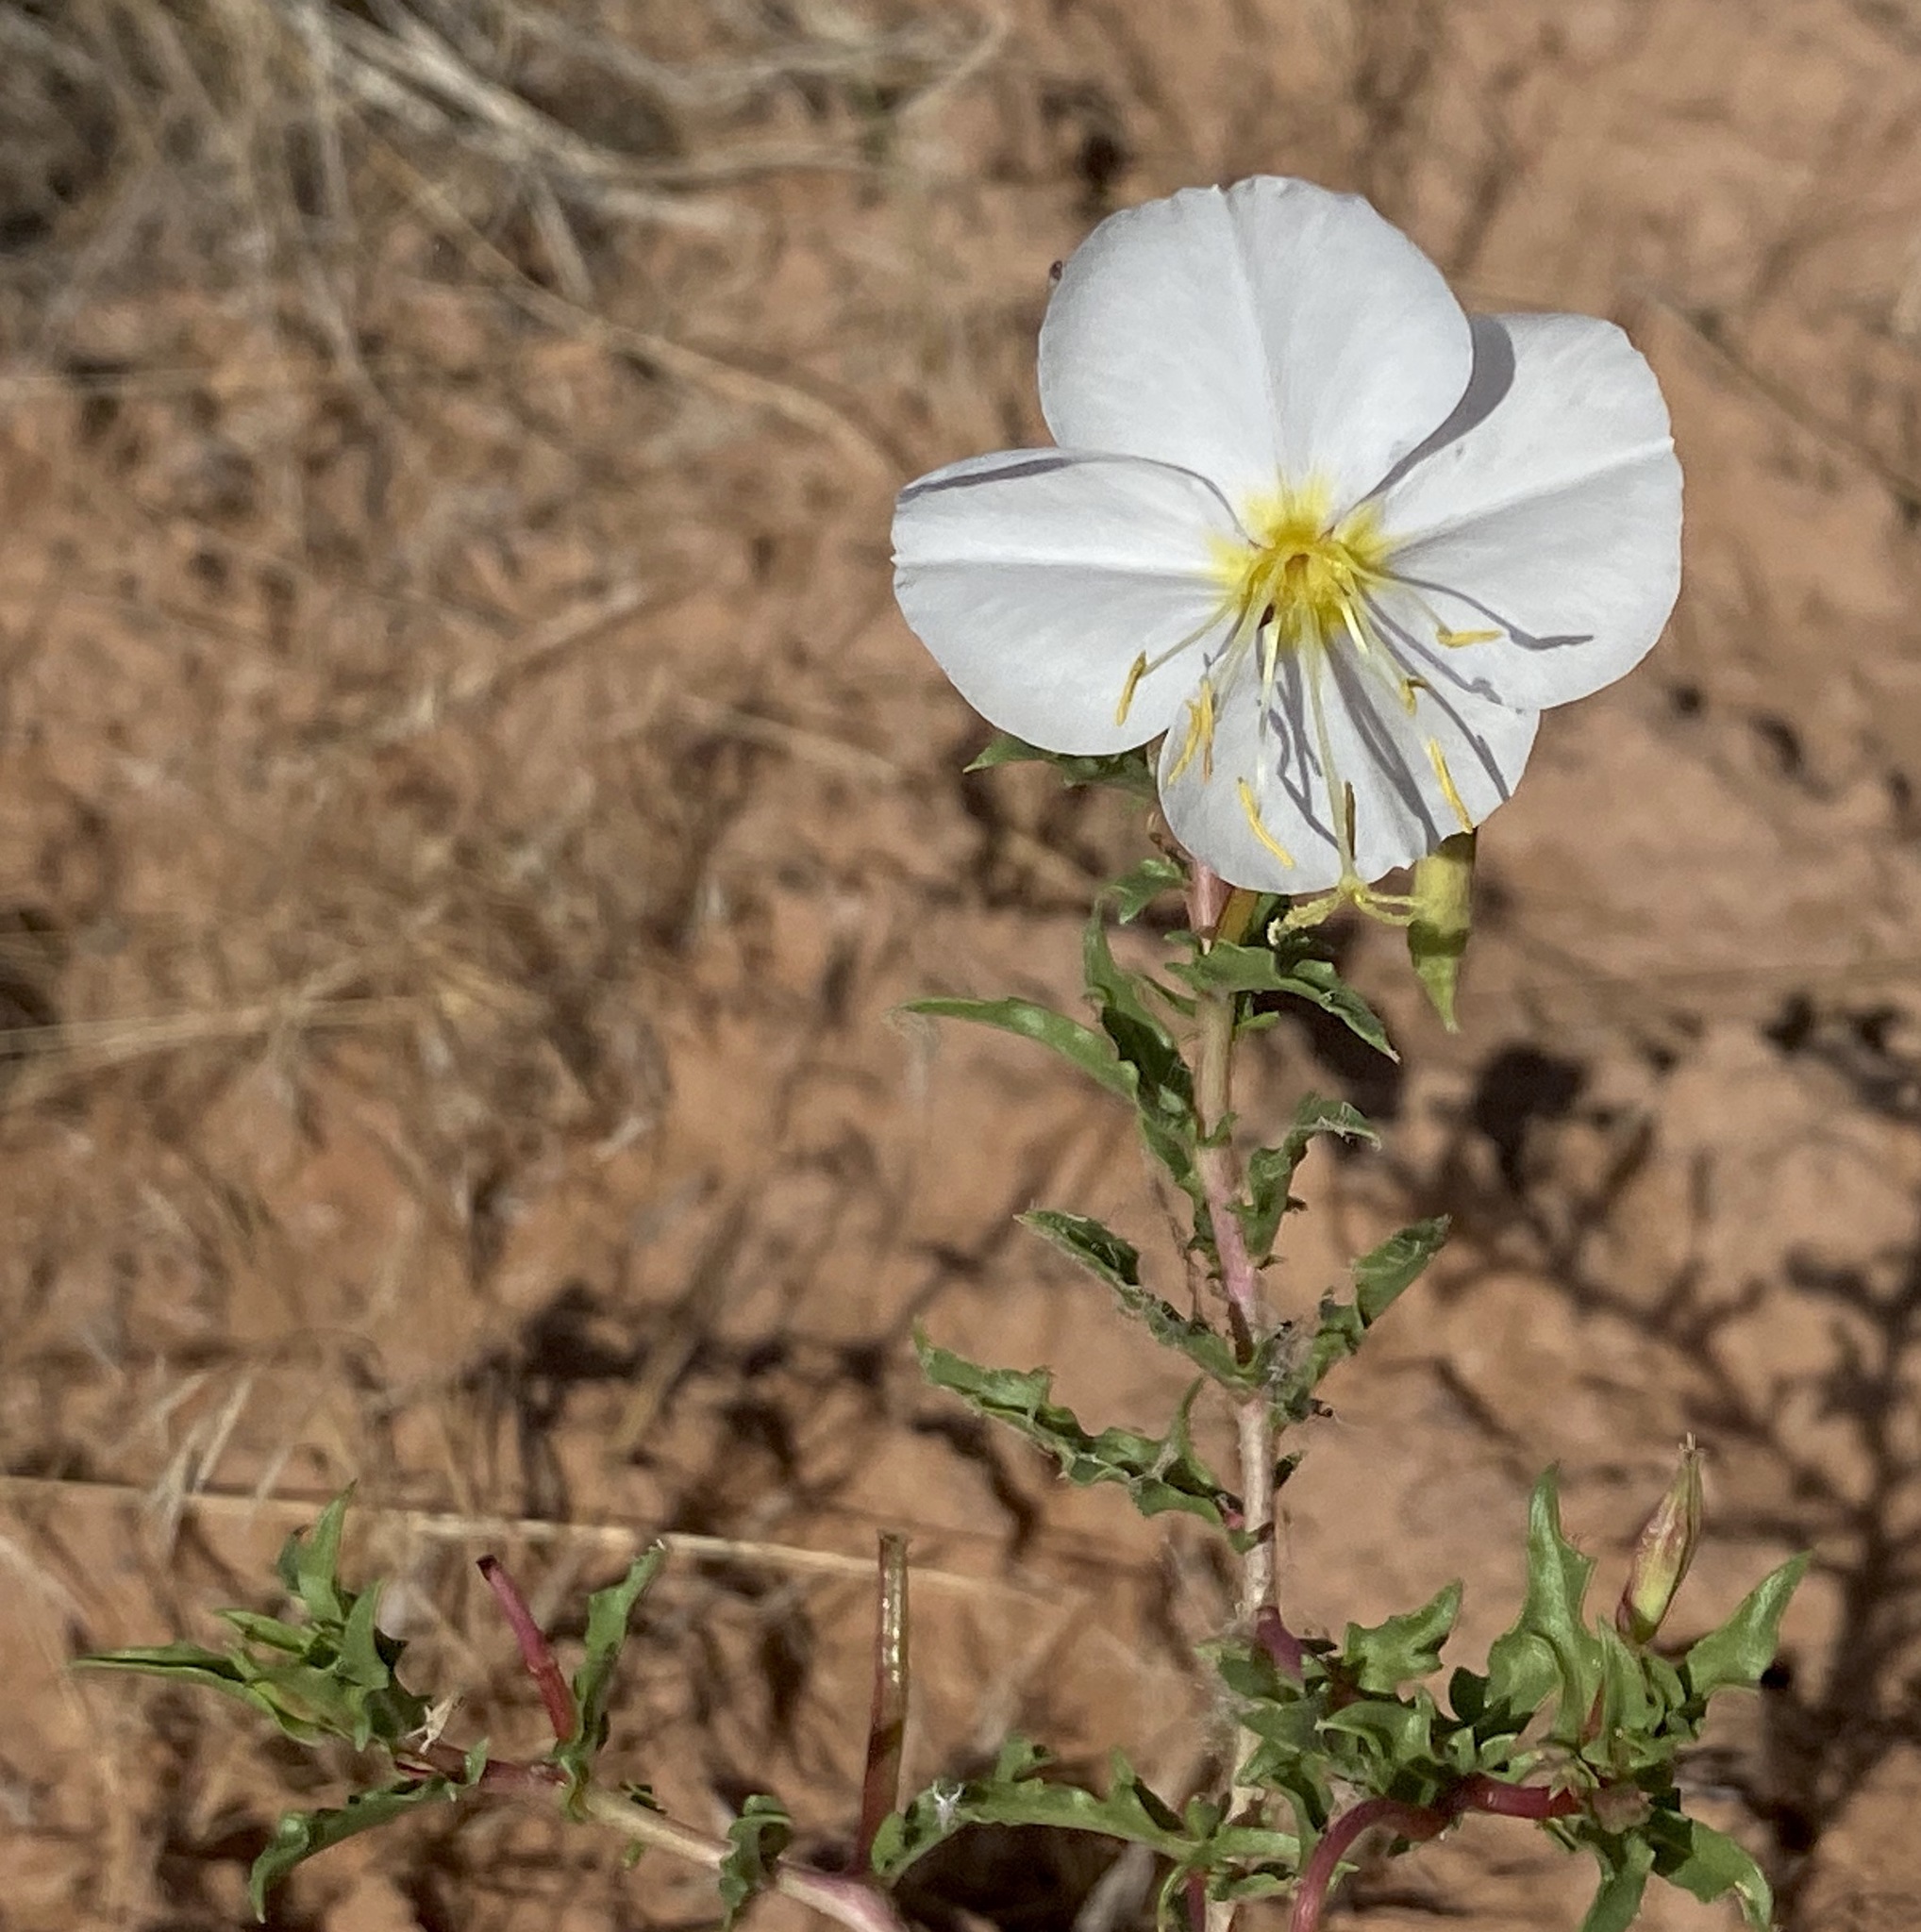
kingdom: Plantae
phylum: Tracheophyta
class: Magnoliopsida
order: Myrtales
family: Onagraceae
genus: Oenothera
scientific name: Oenothera pallida
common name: Pale evening-primrose
